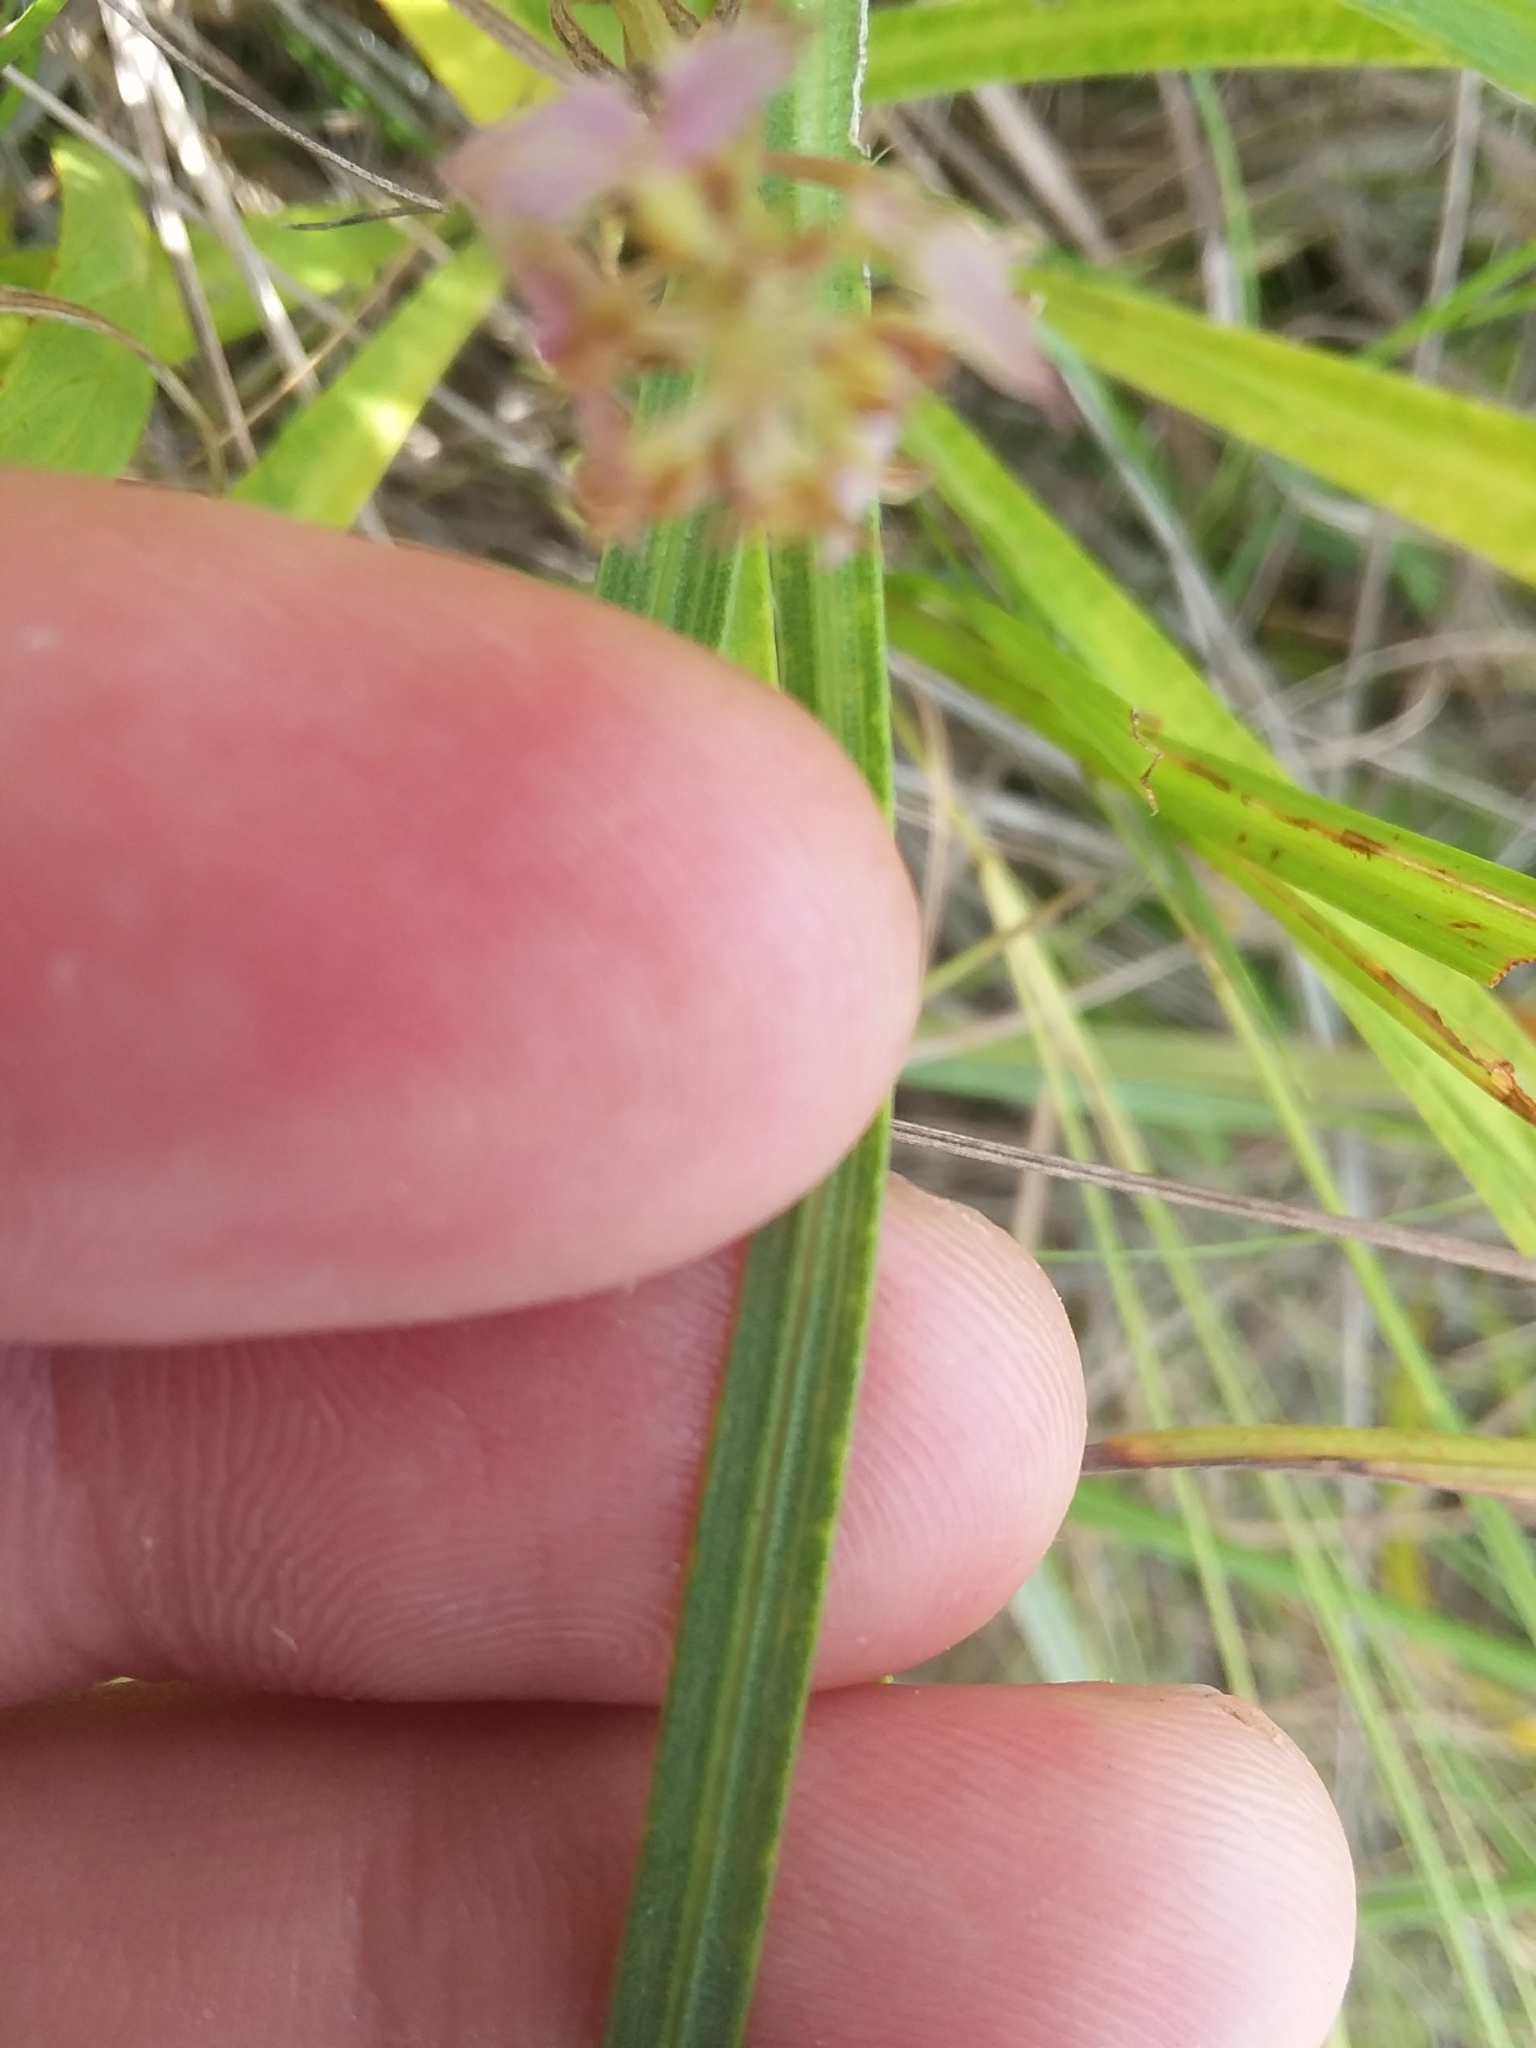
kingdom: Plantae
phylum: Tracheophyta
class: Magnoliopsida
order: Asterales
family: Asteraceae
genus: Liatris
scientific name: Liatris spicata
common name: Florist gayfeather
